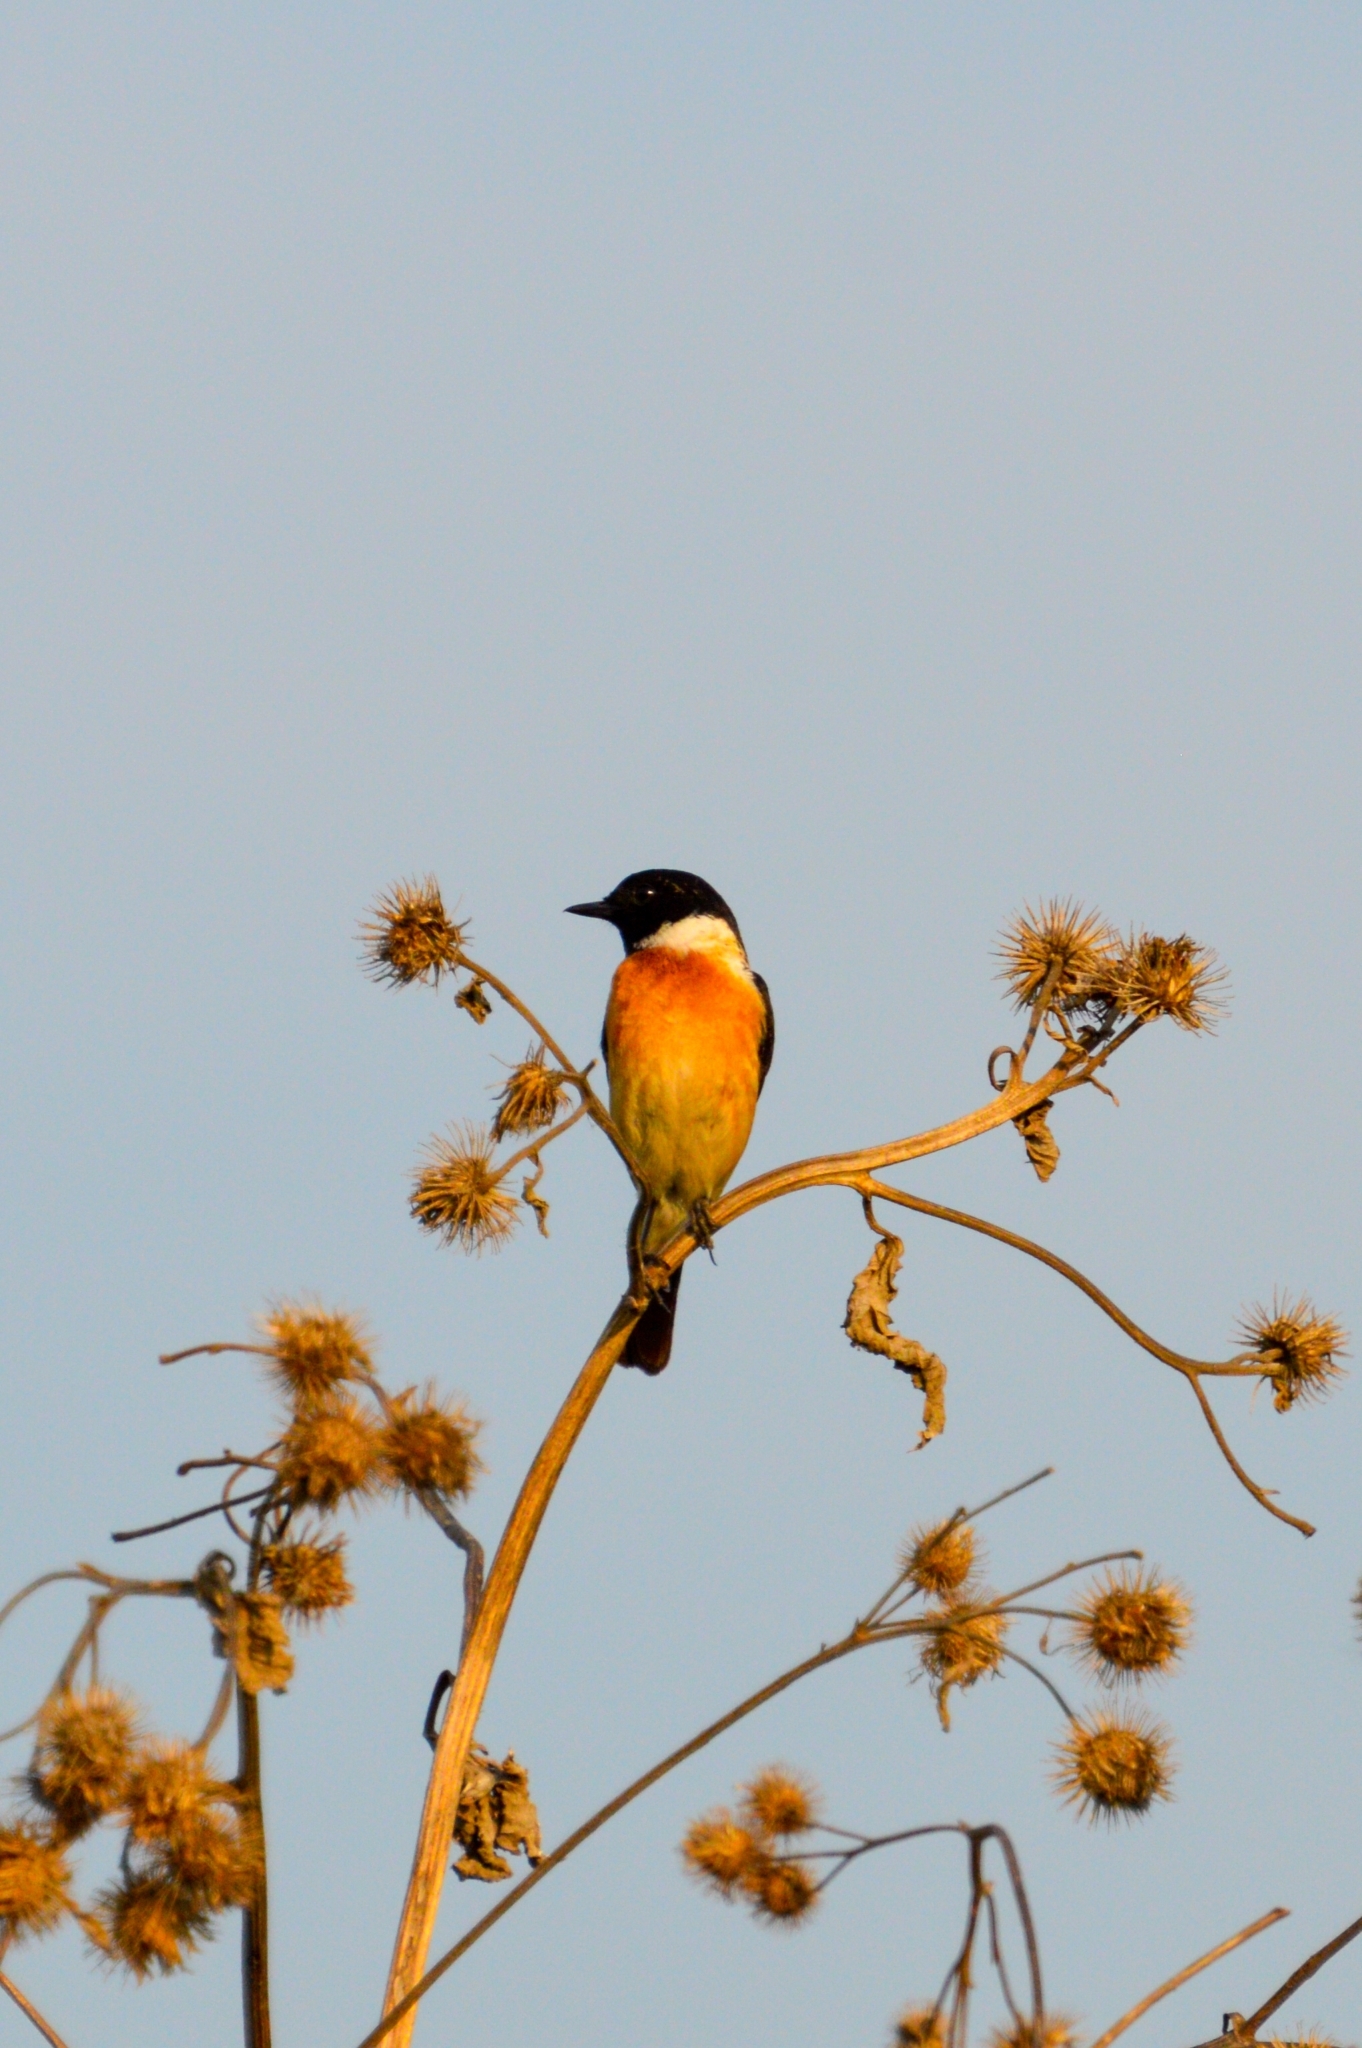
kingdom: Animalia
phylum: Chordata
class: Aves
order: Passeriformes
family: Muscicapidae
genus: Saxicola
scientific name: Saxicola maurus
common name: Siberian stonechat
